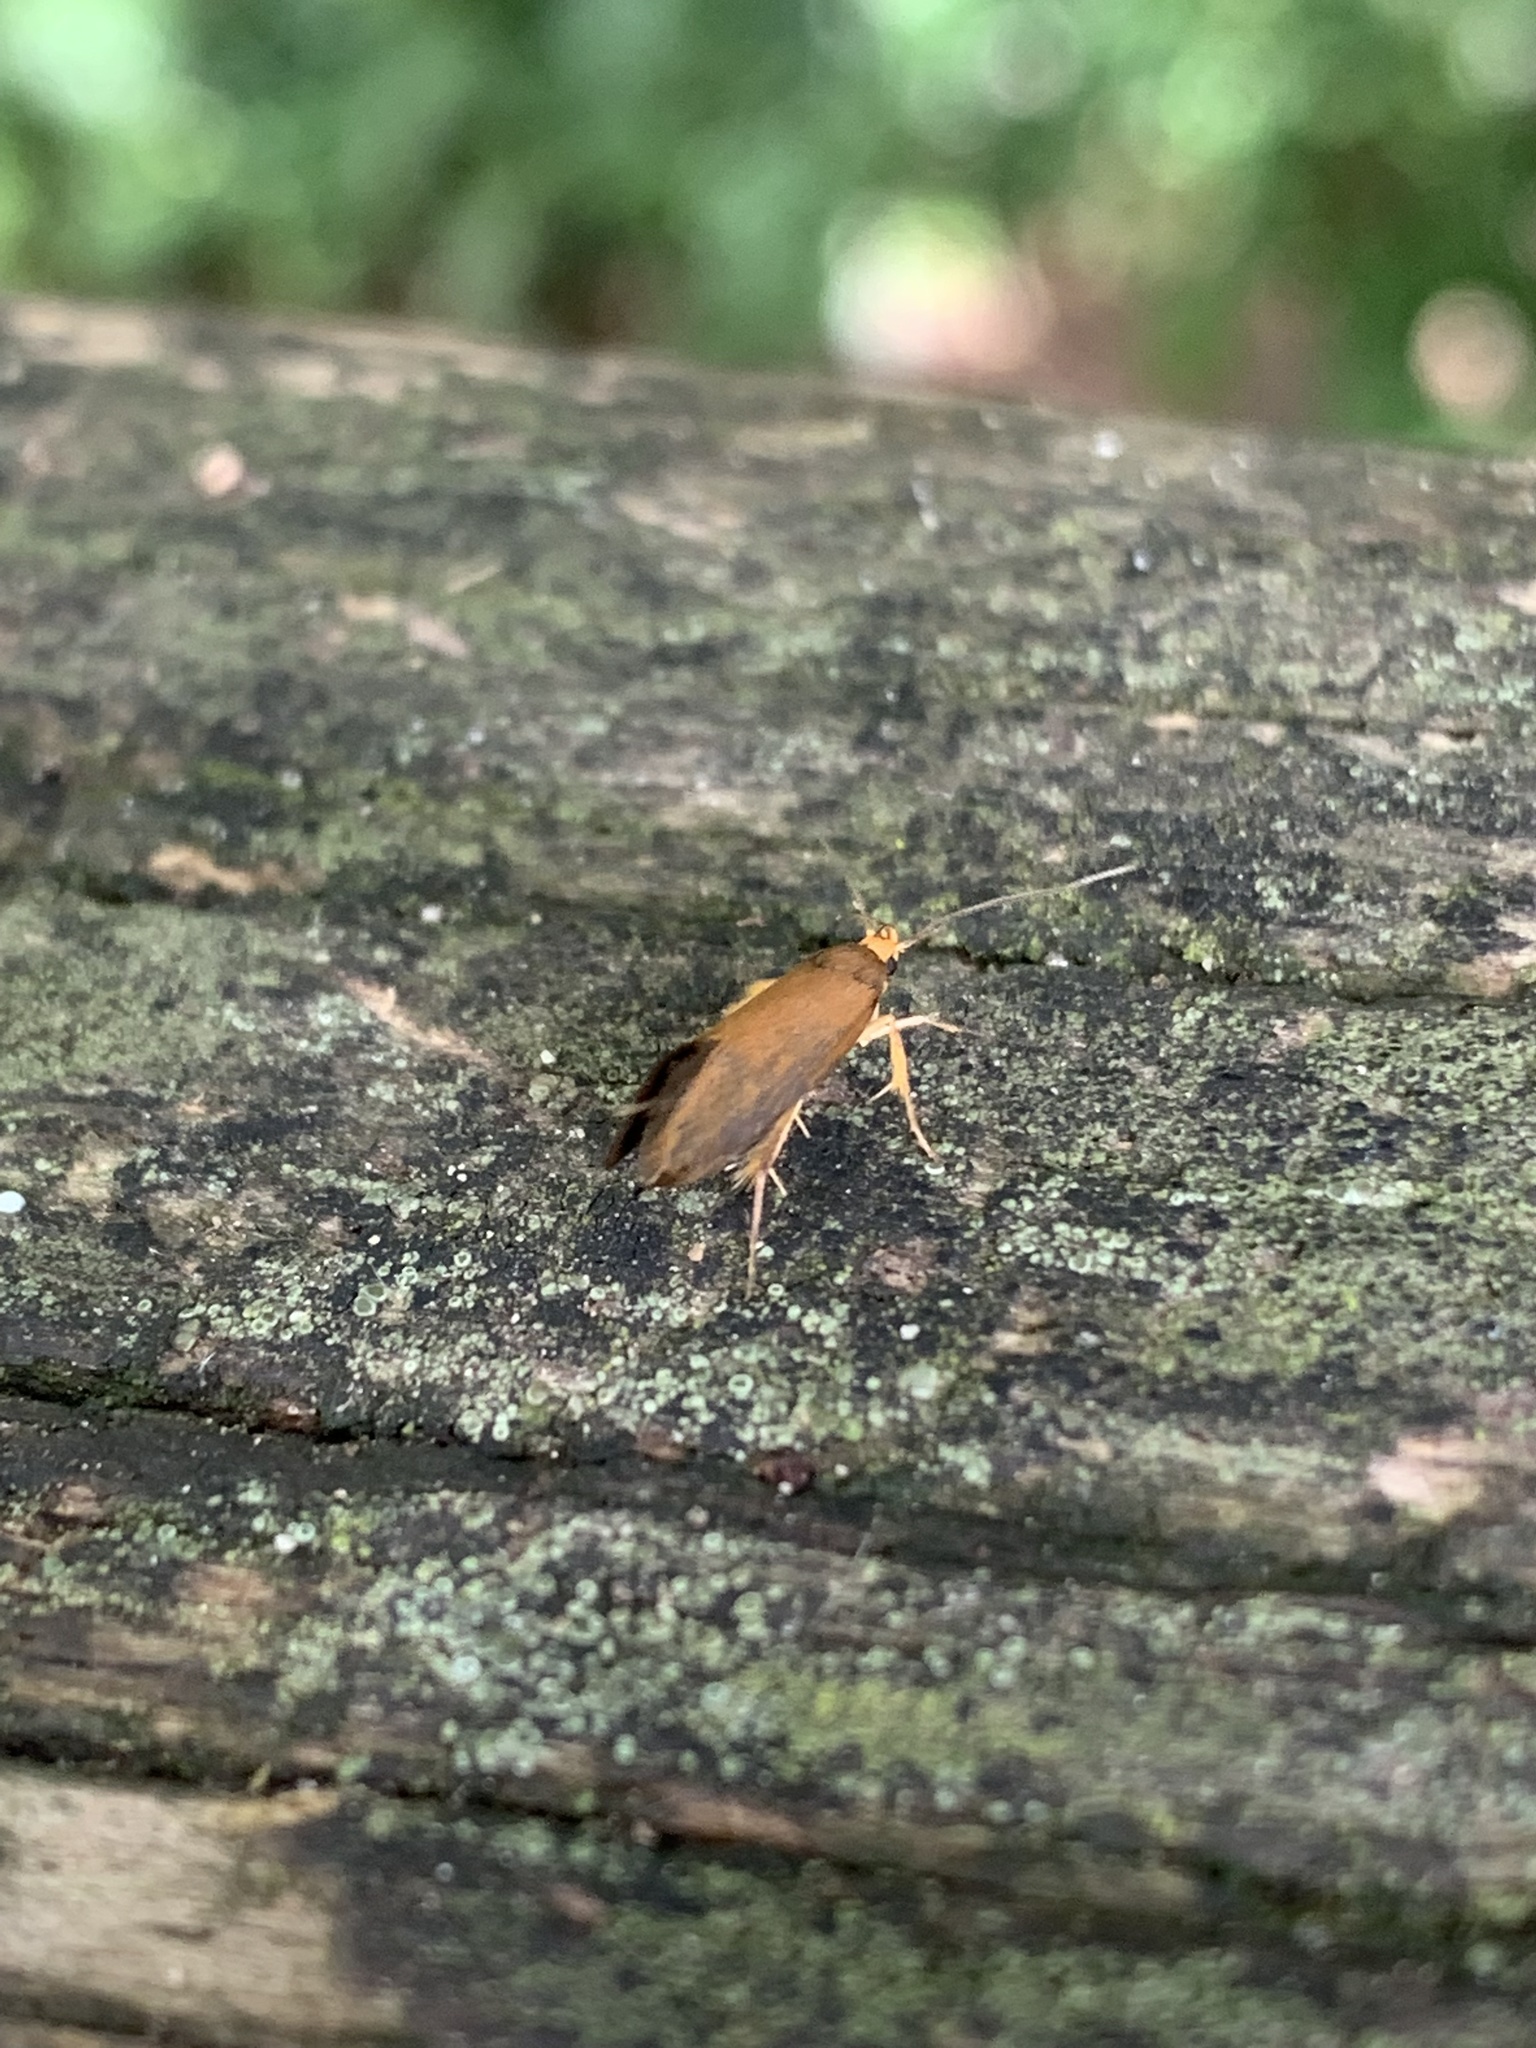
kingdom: Animalia
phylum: Arthropoda
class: Insecta
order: Lepidoptera
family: Oecophoridae
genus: Borkhausenia
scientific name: Borkhausenia Crassa unitella
